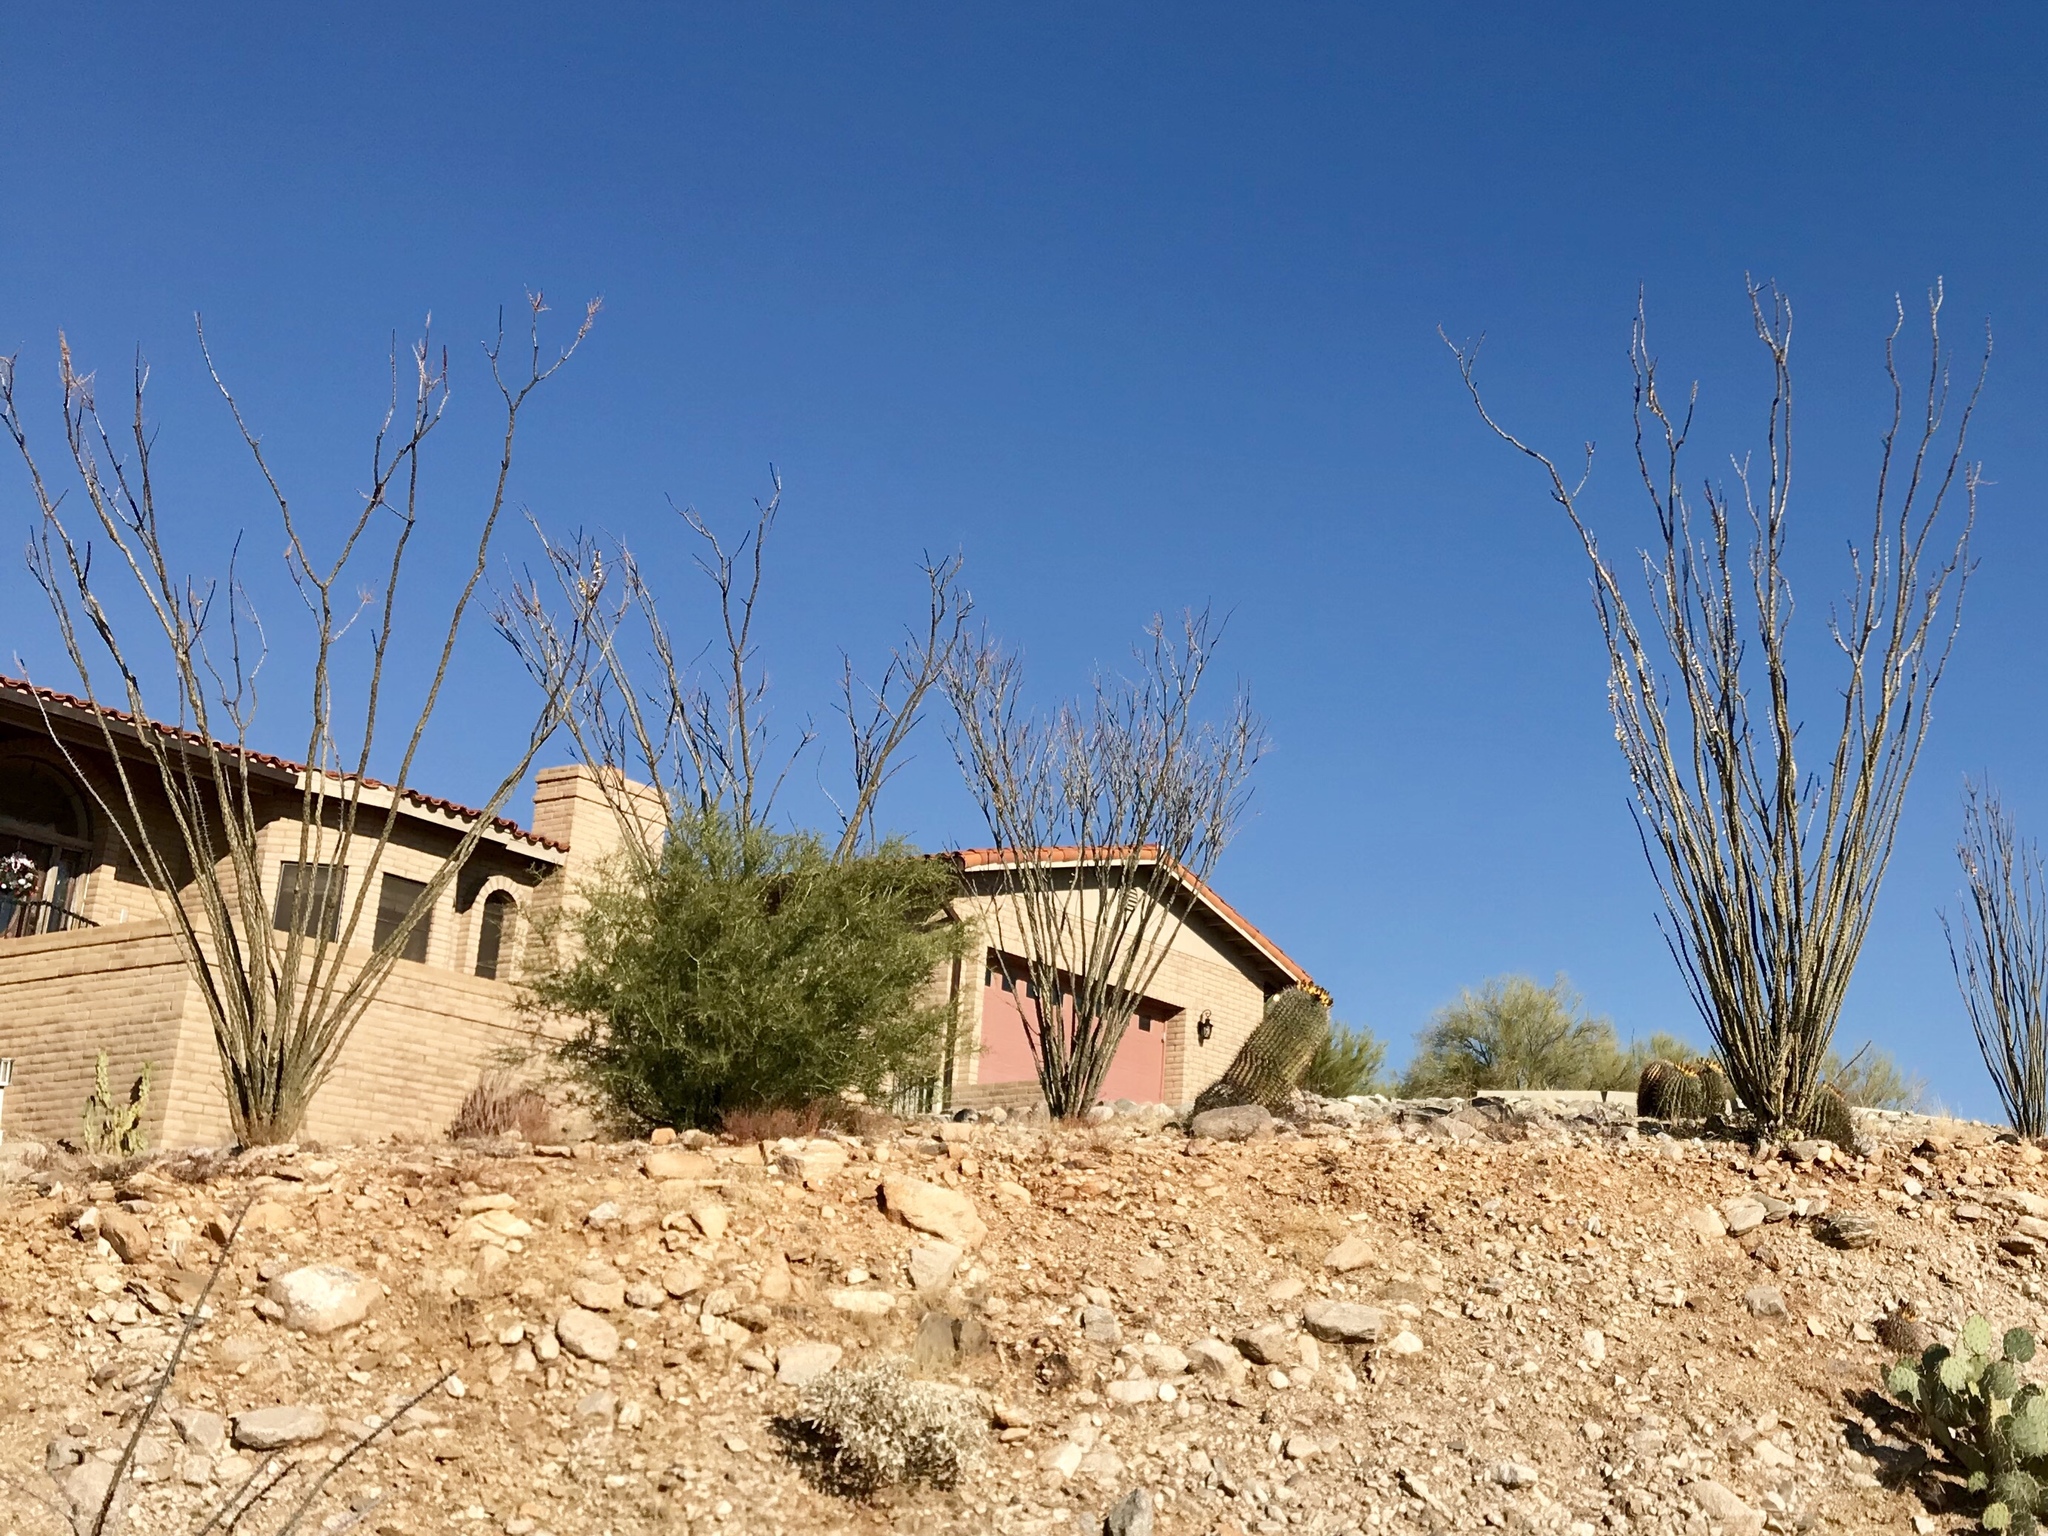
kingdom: Plantae
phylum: Tracheophyta
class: Magnoliopsida
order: Ericales
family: Fouquieriaceae
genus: Fouquieria
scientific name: Fouquieria splendens
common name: Vine-cactus
